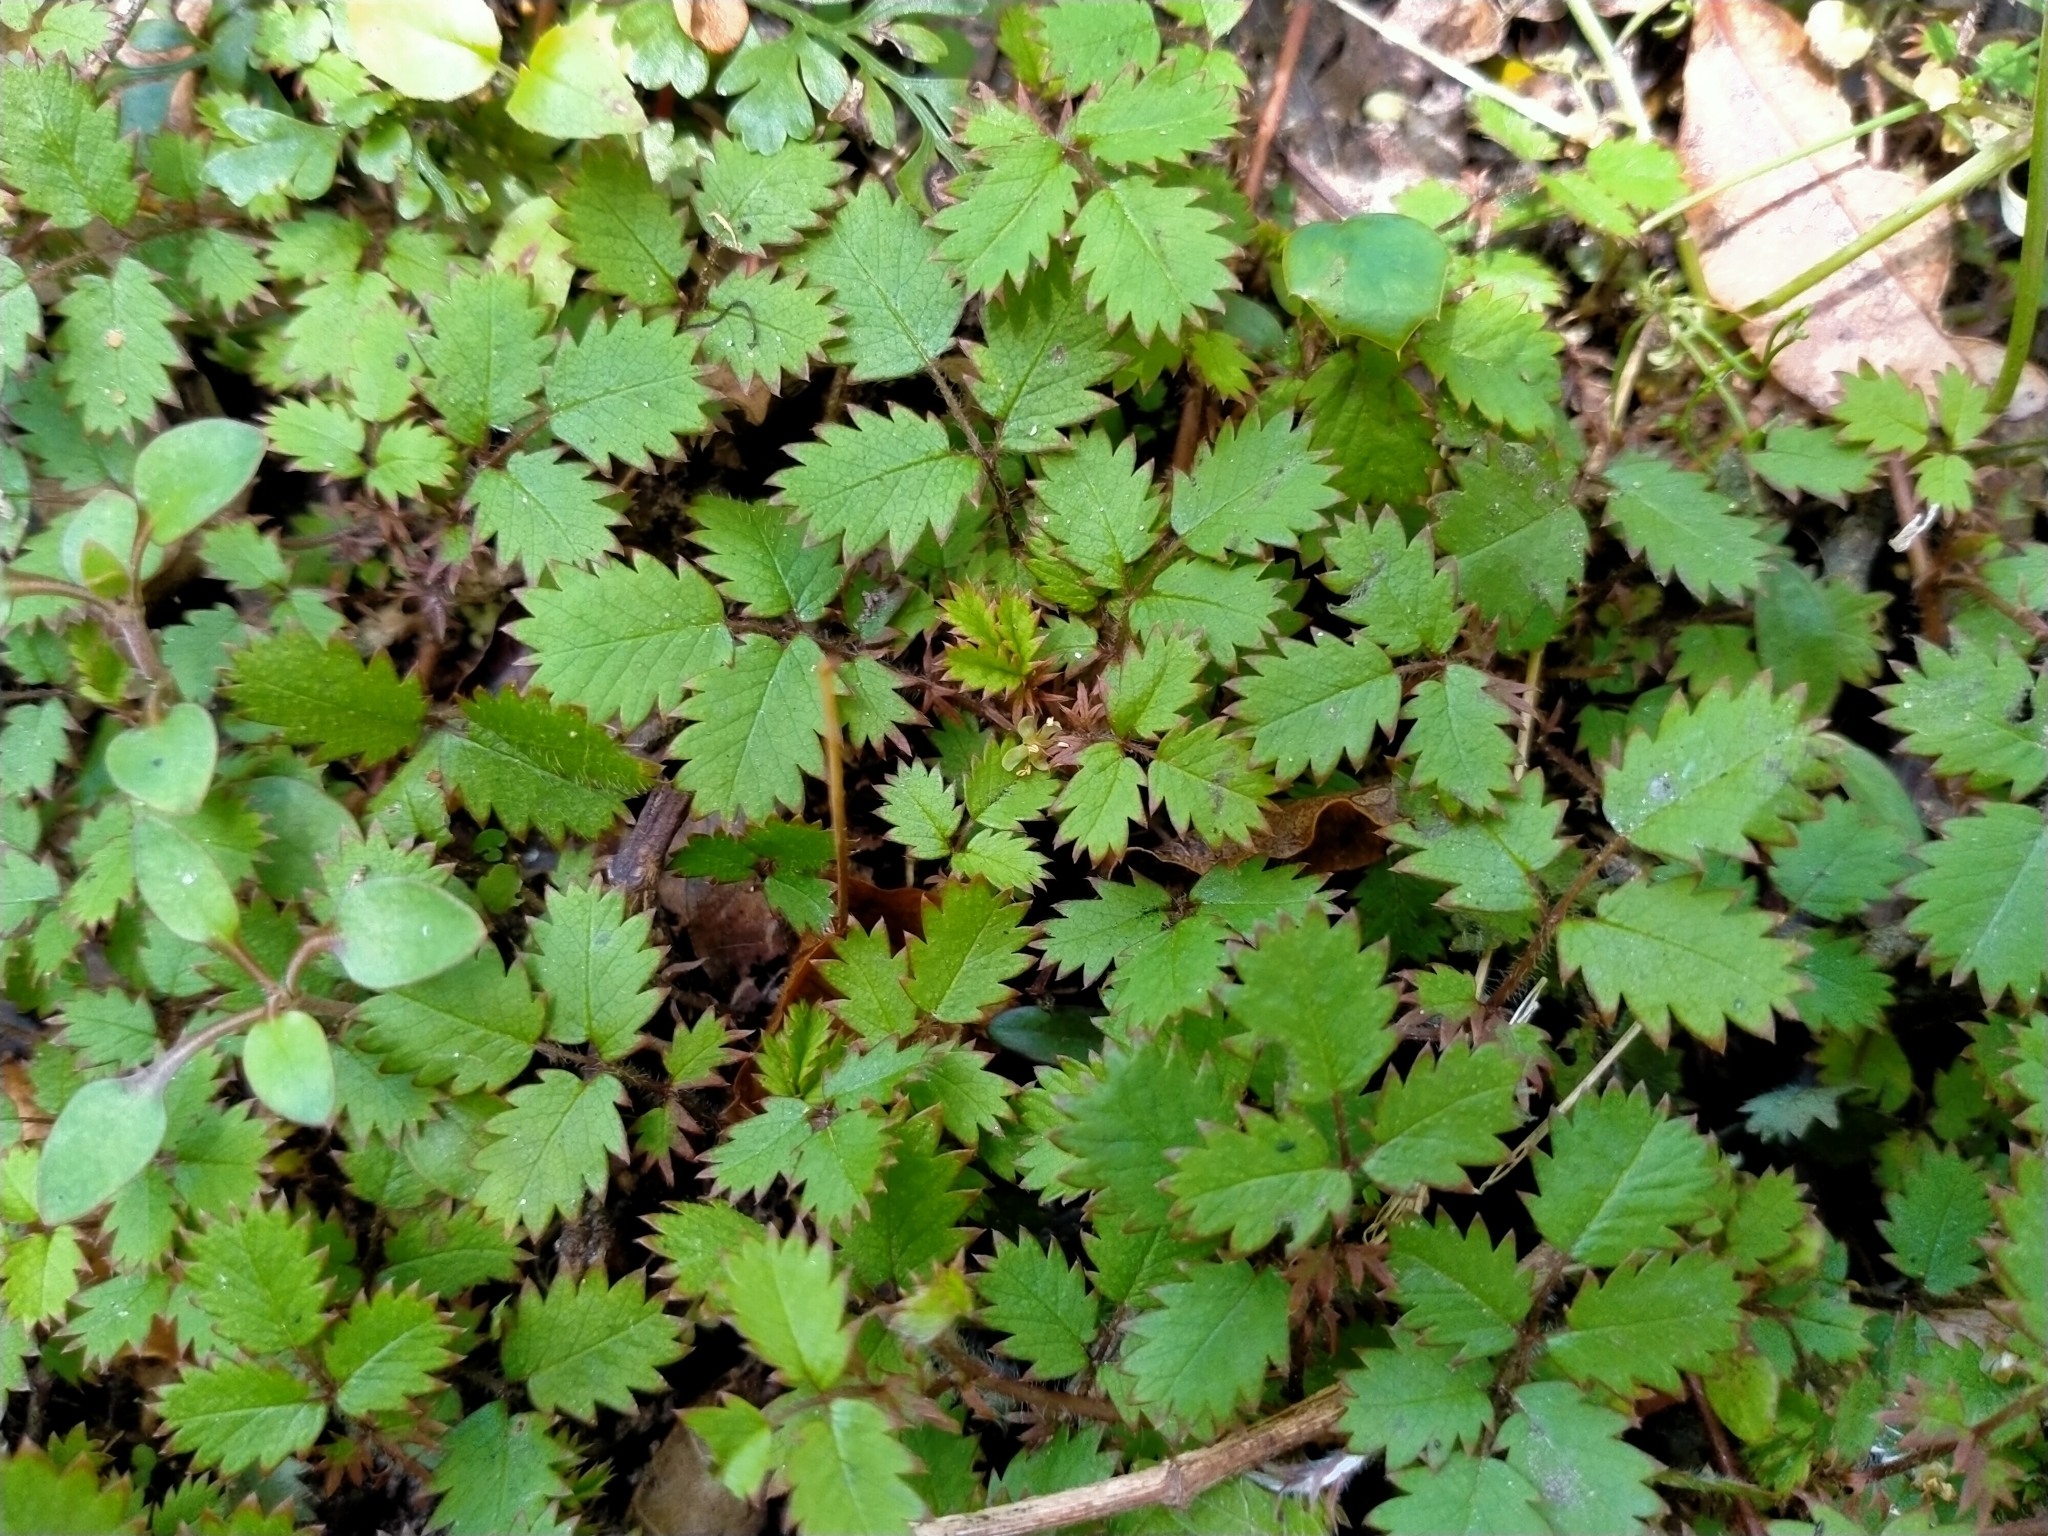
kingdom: Plantae
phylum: Tracheophyta
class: Magnoliopsida
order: Rosales
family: Rosaceae
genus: Acaena
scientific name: Acaena juvenca
